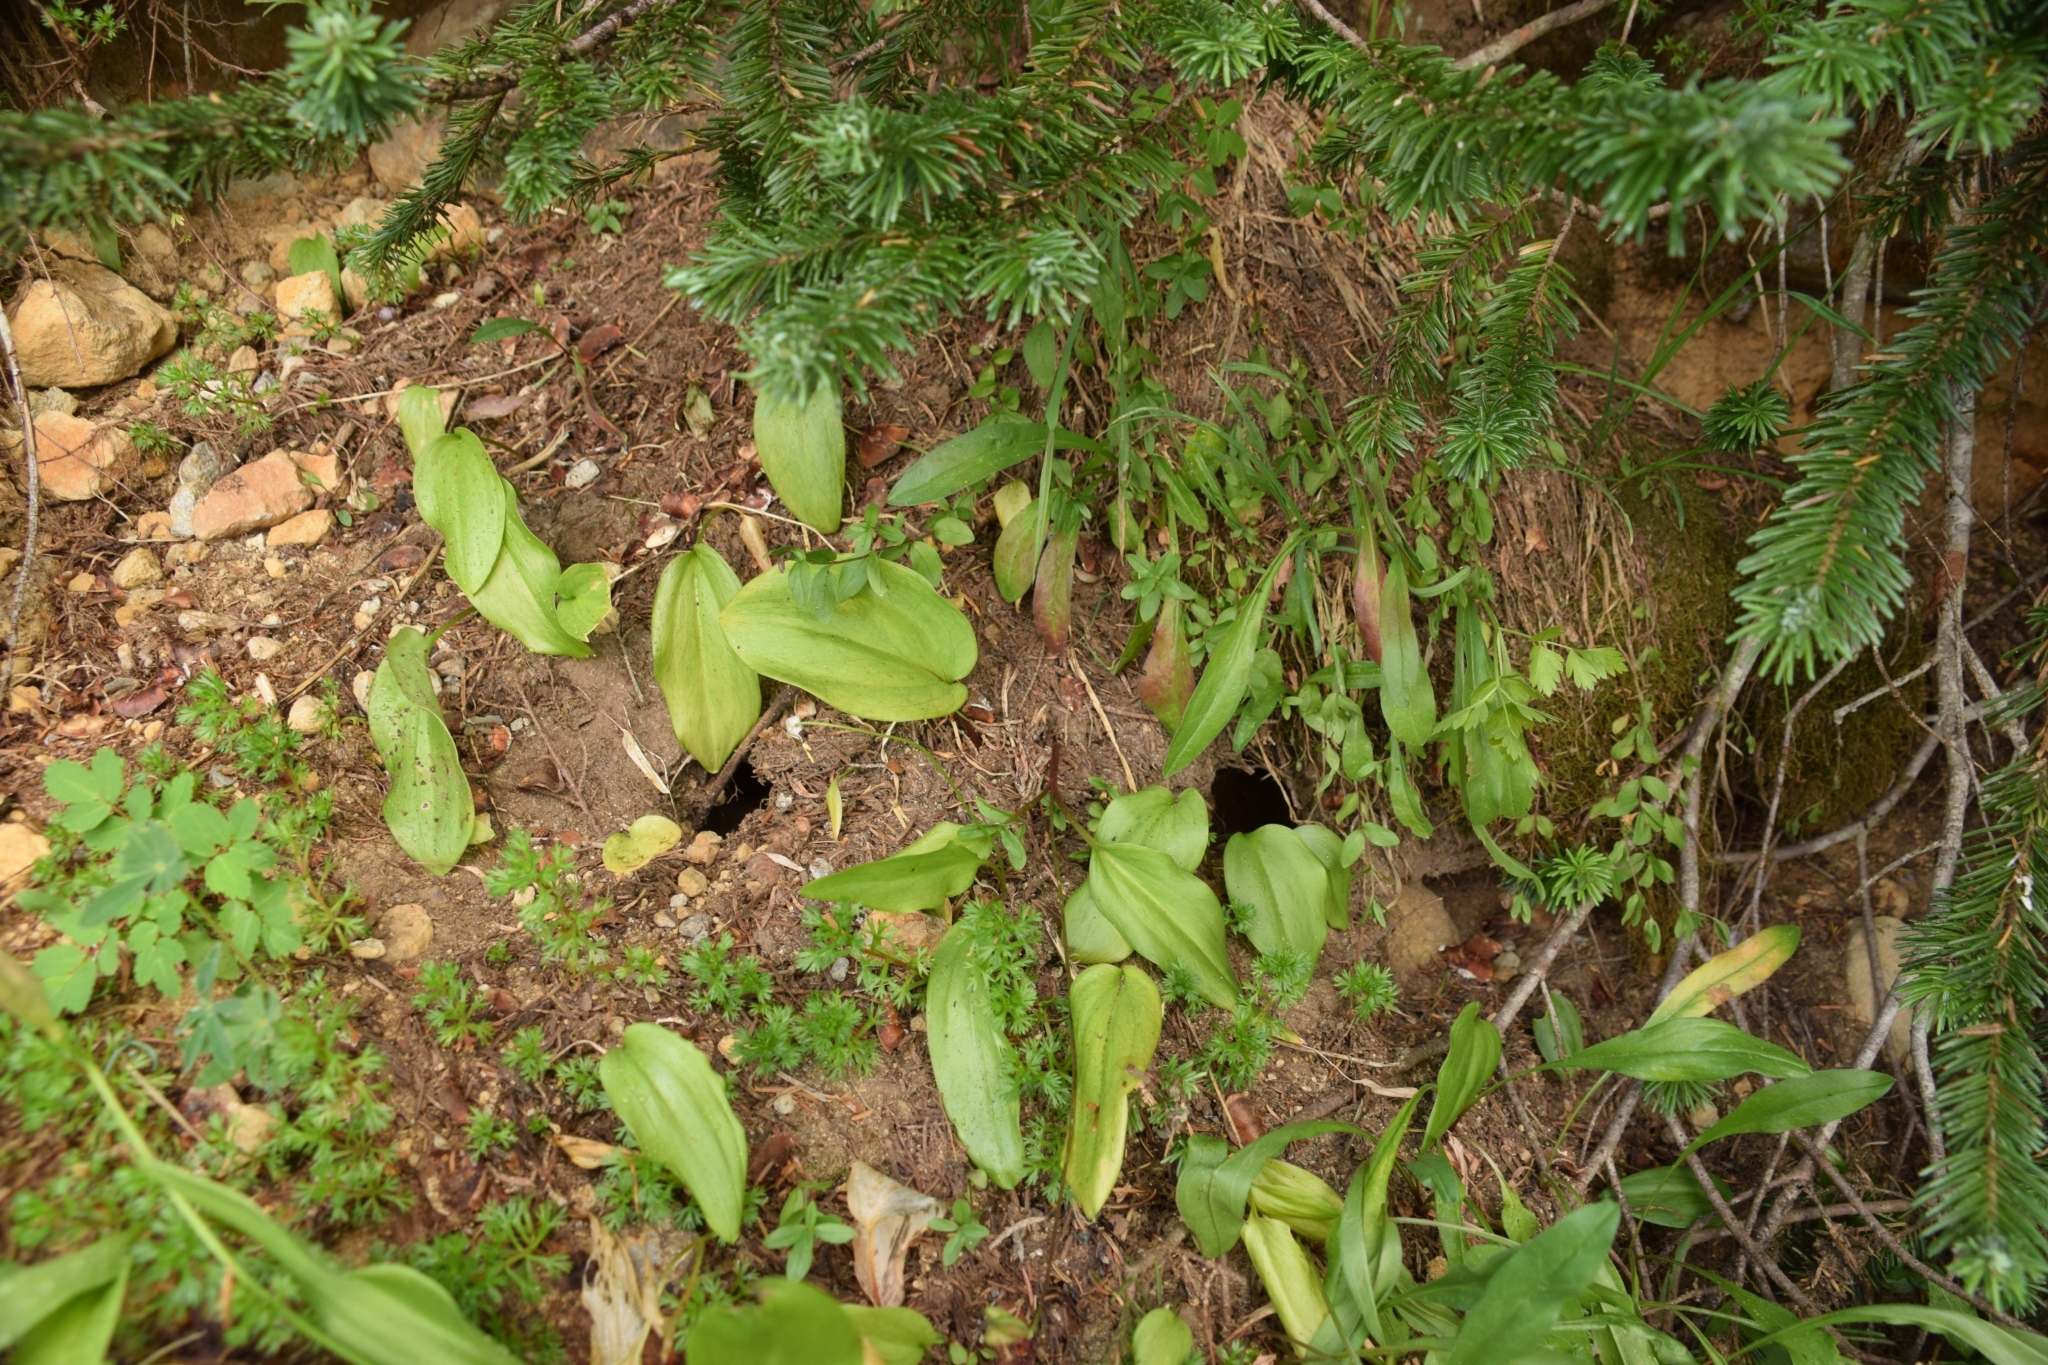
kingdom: Plantae
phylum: Tracheophyta
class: Liliopsida
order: Liliales
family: Liliaceae
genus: Erythronium
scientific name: Erythronium montanum
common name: Avalanche lily
